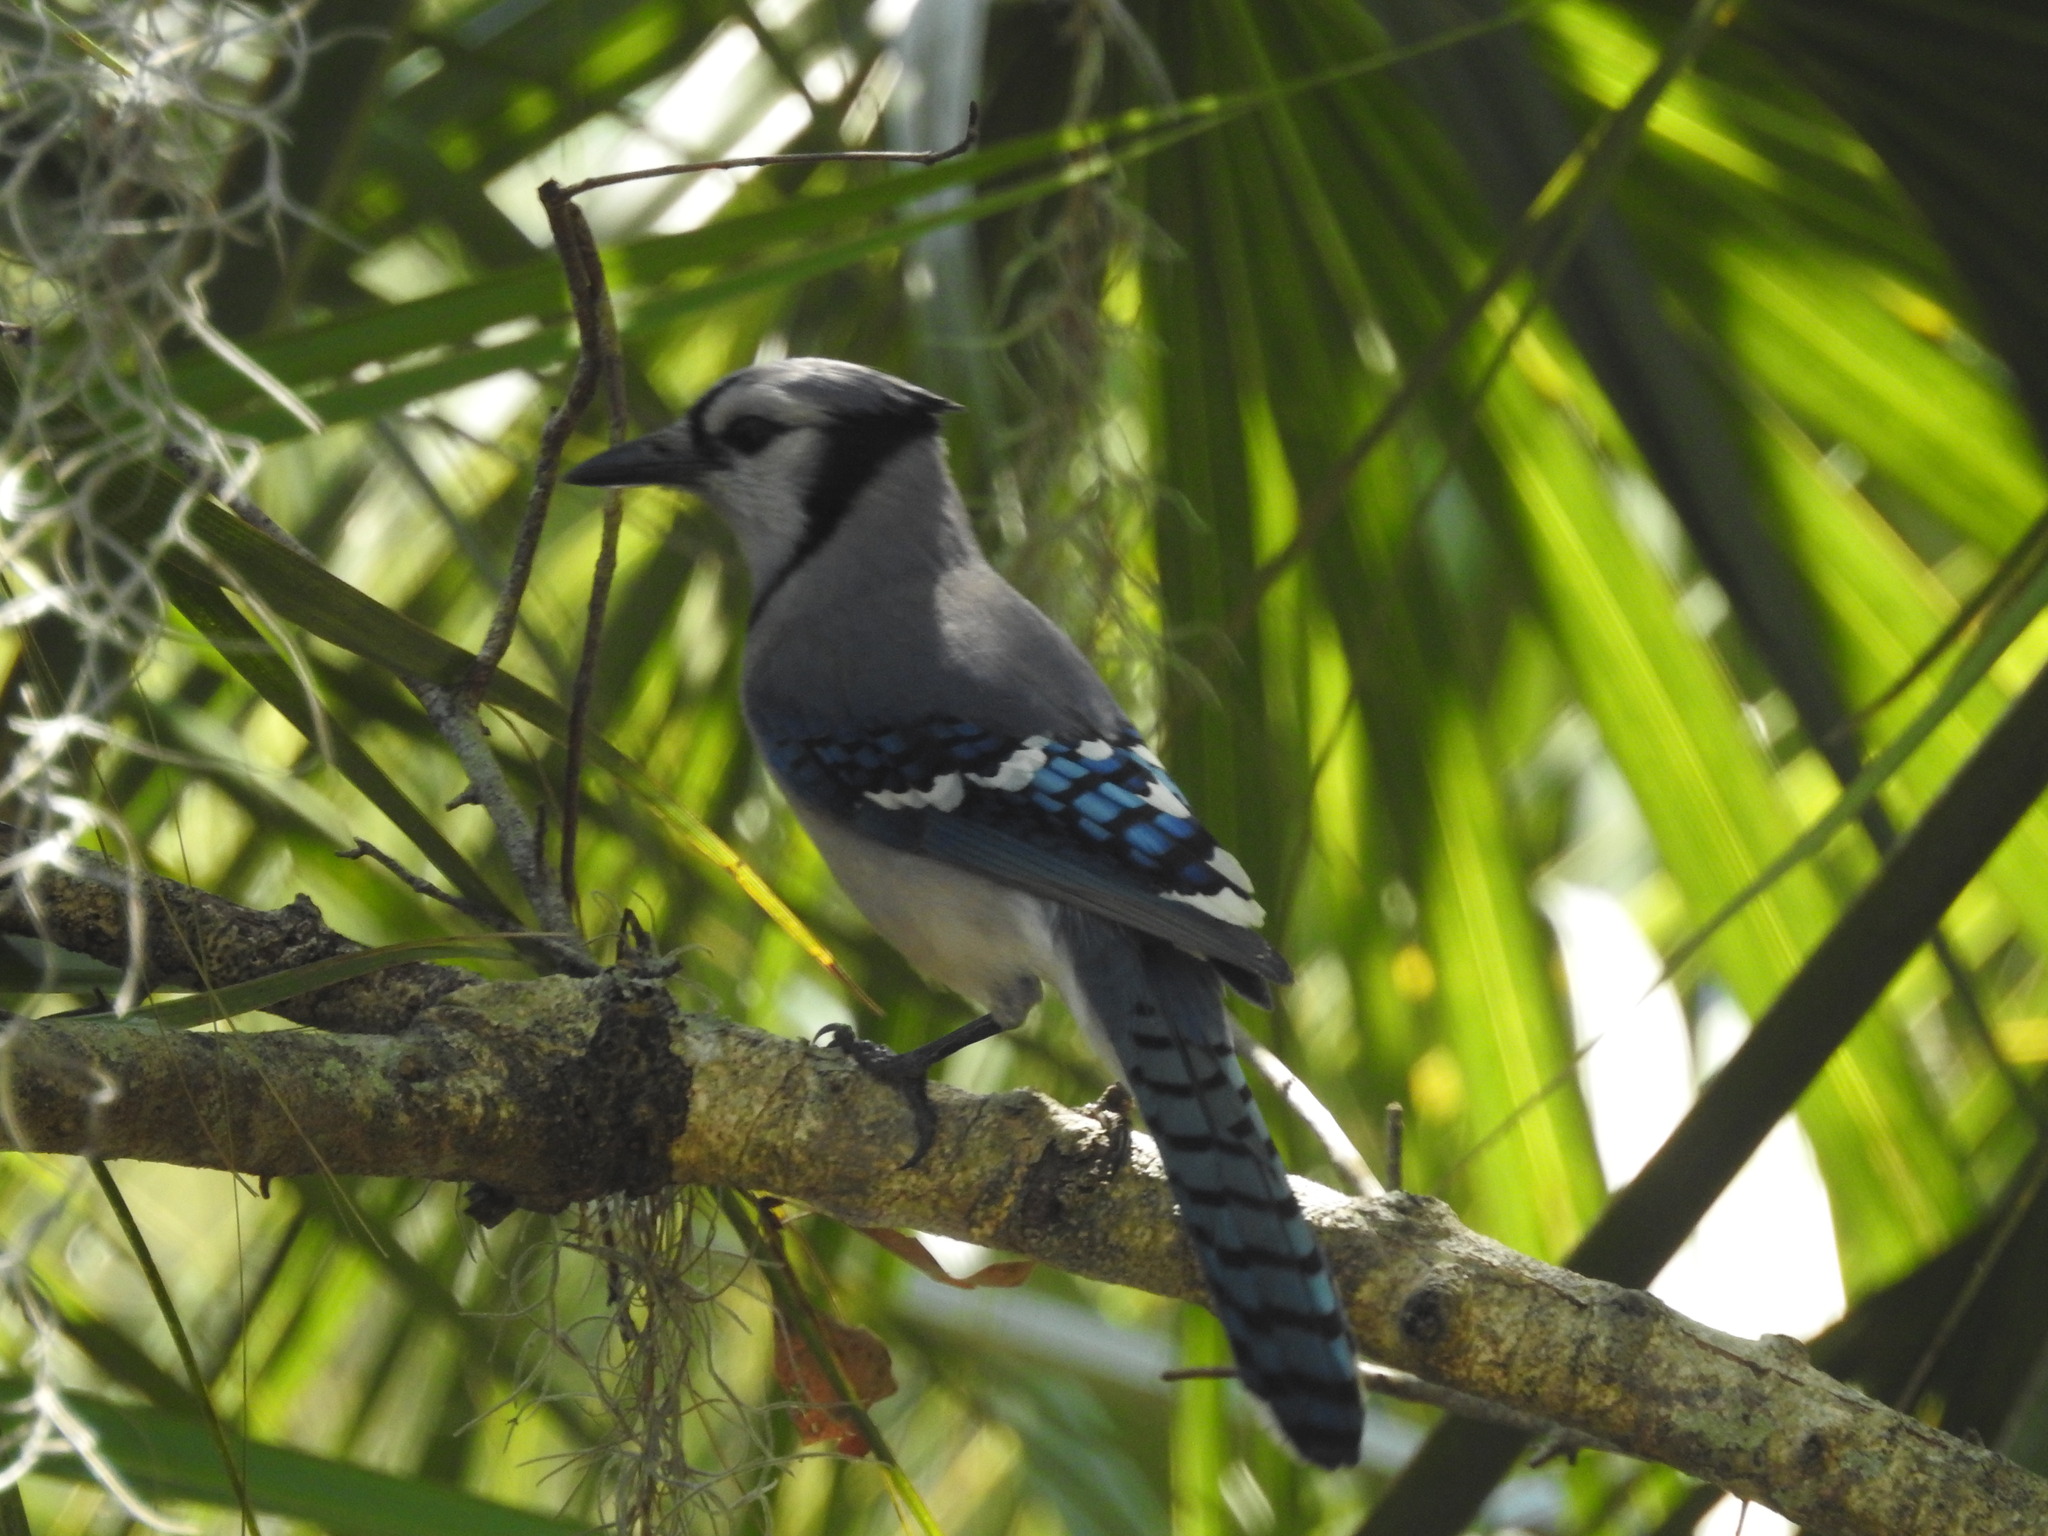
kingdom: Animalia
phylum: Chordata
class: Aves
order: Passeriformes
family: Corvidae
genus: Cyanocitta
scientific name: Cyanocitta cristata
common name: Blue jay
